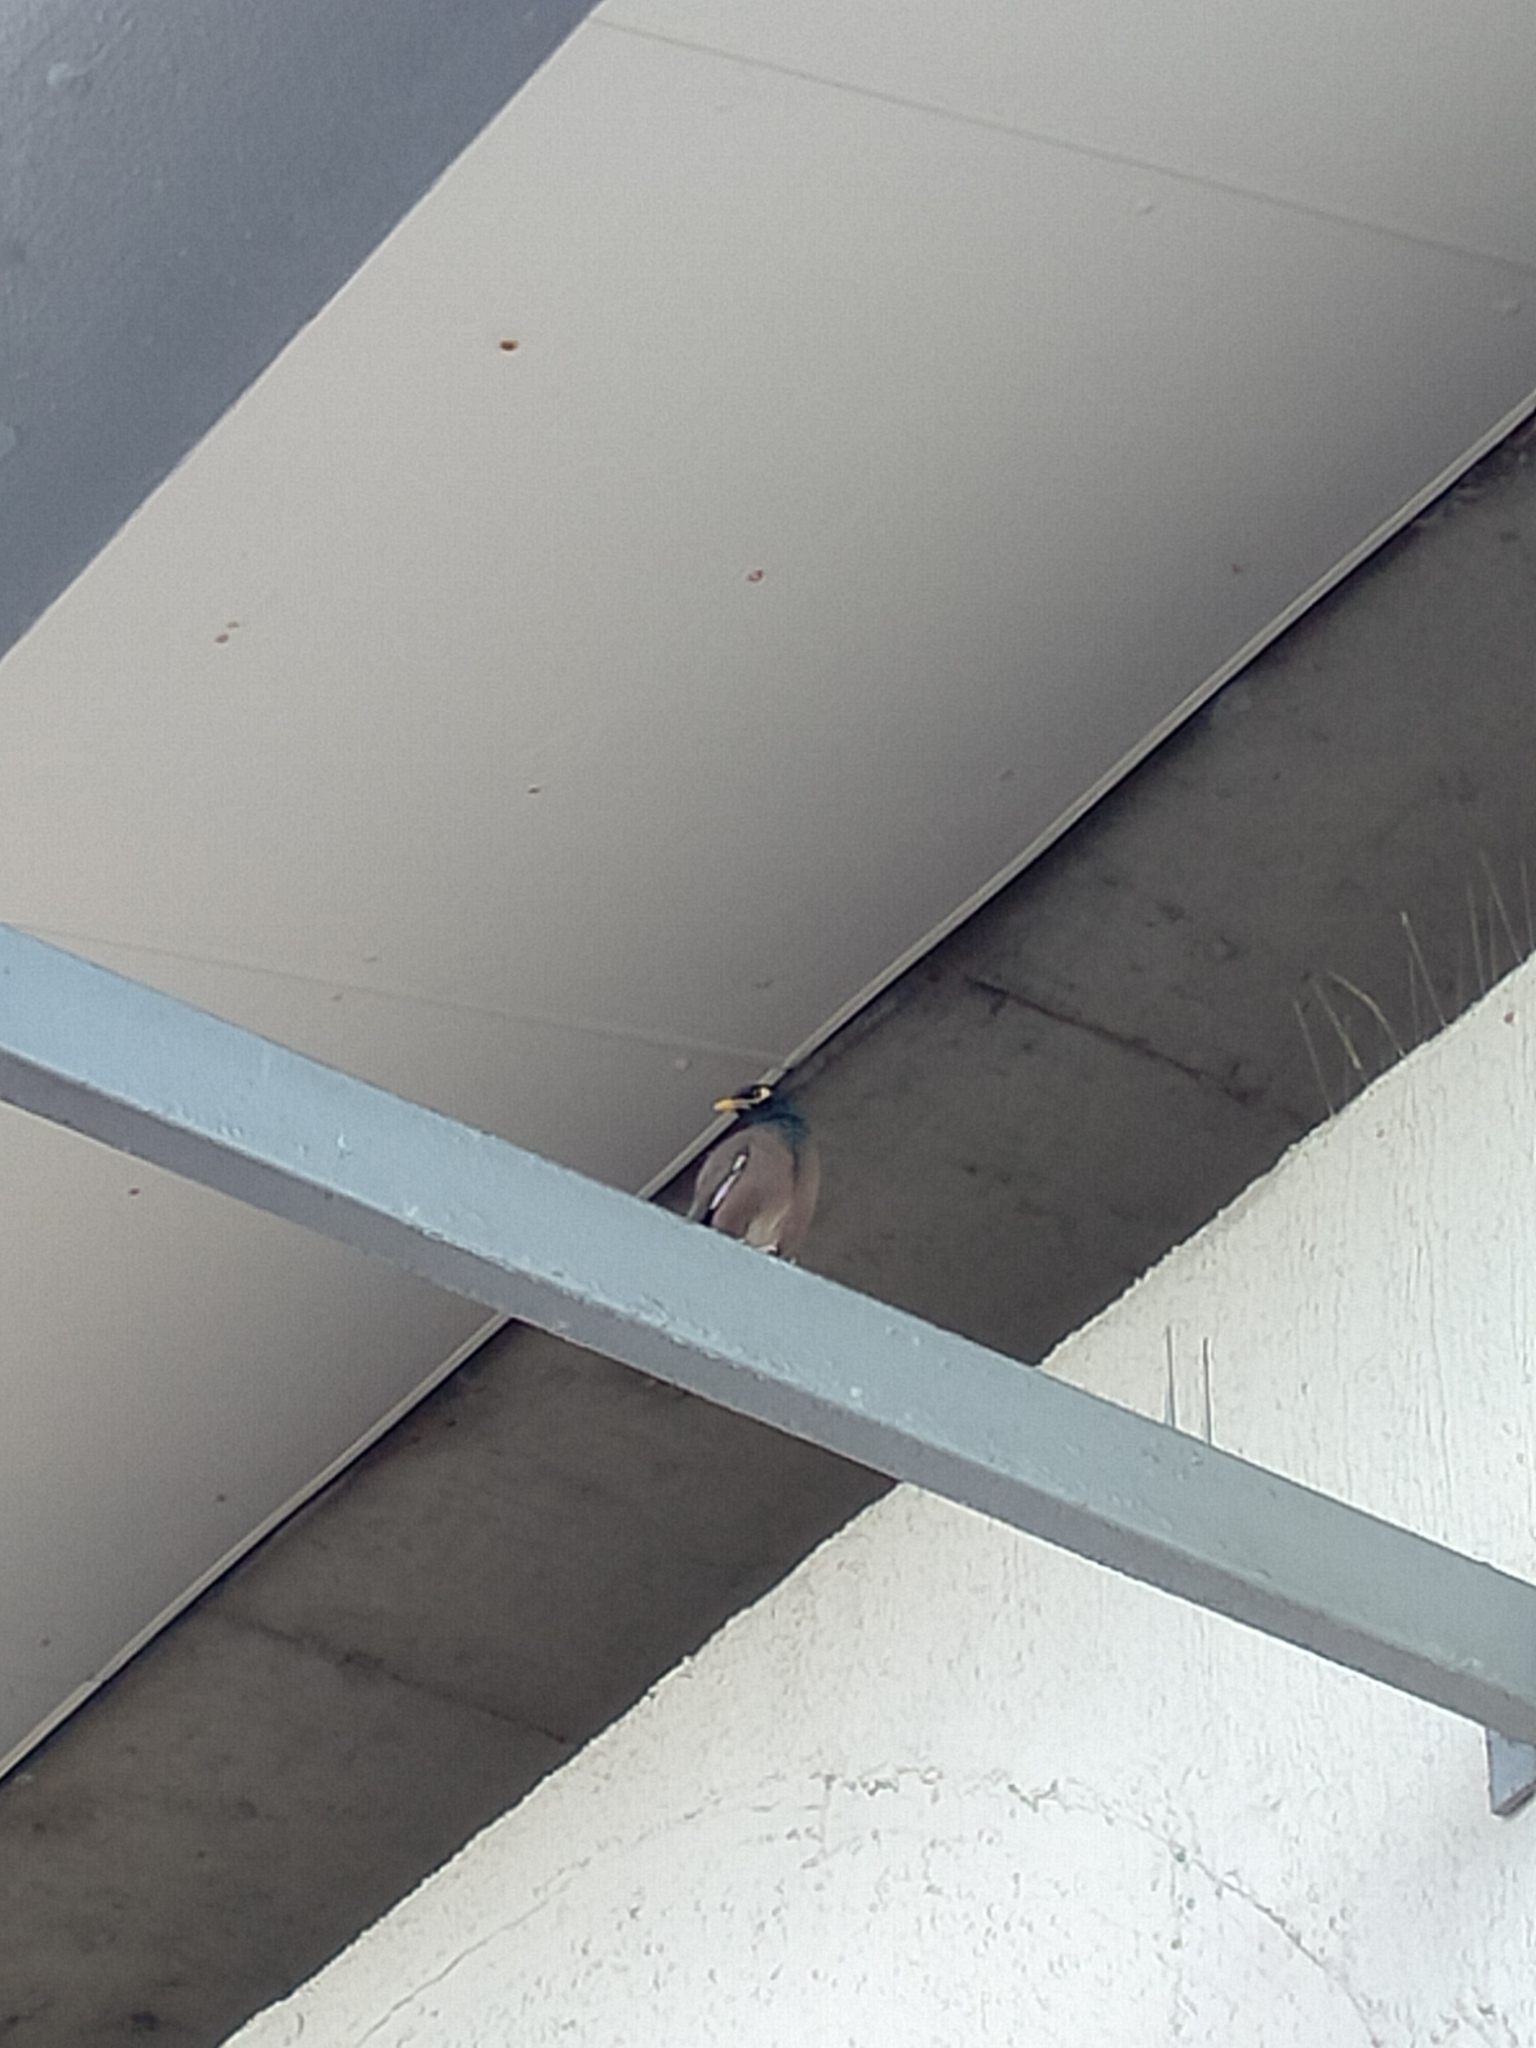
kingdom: Animalia
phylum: Chordata
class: Aves
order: Passeriformes
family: Sturnidae
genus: Acridotheres
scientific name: Acridotheres tristis
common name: Common myna
